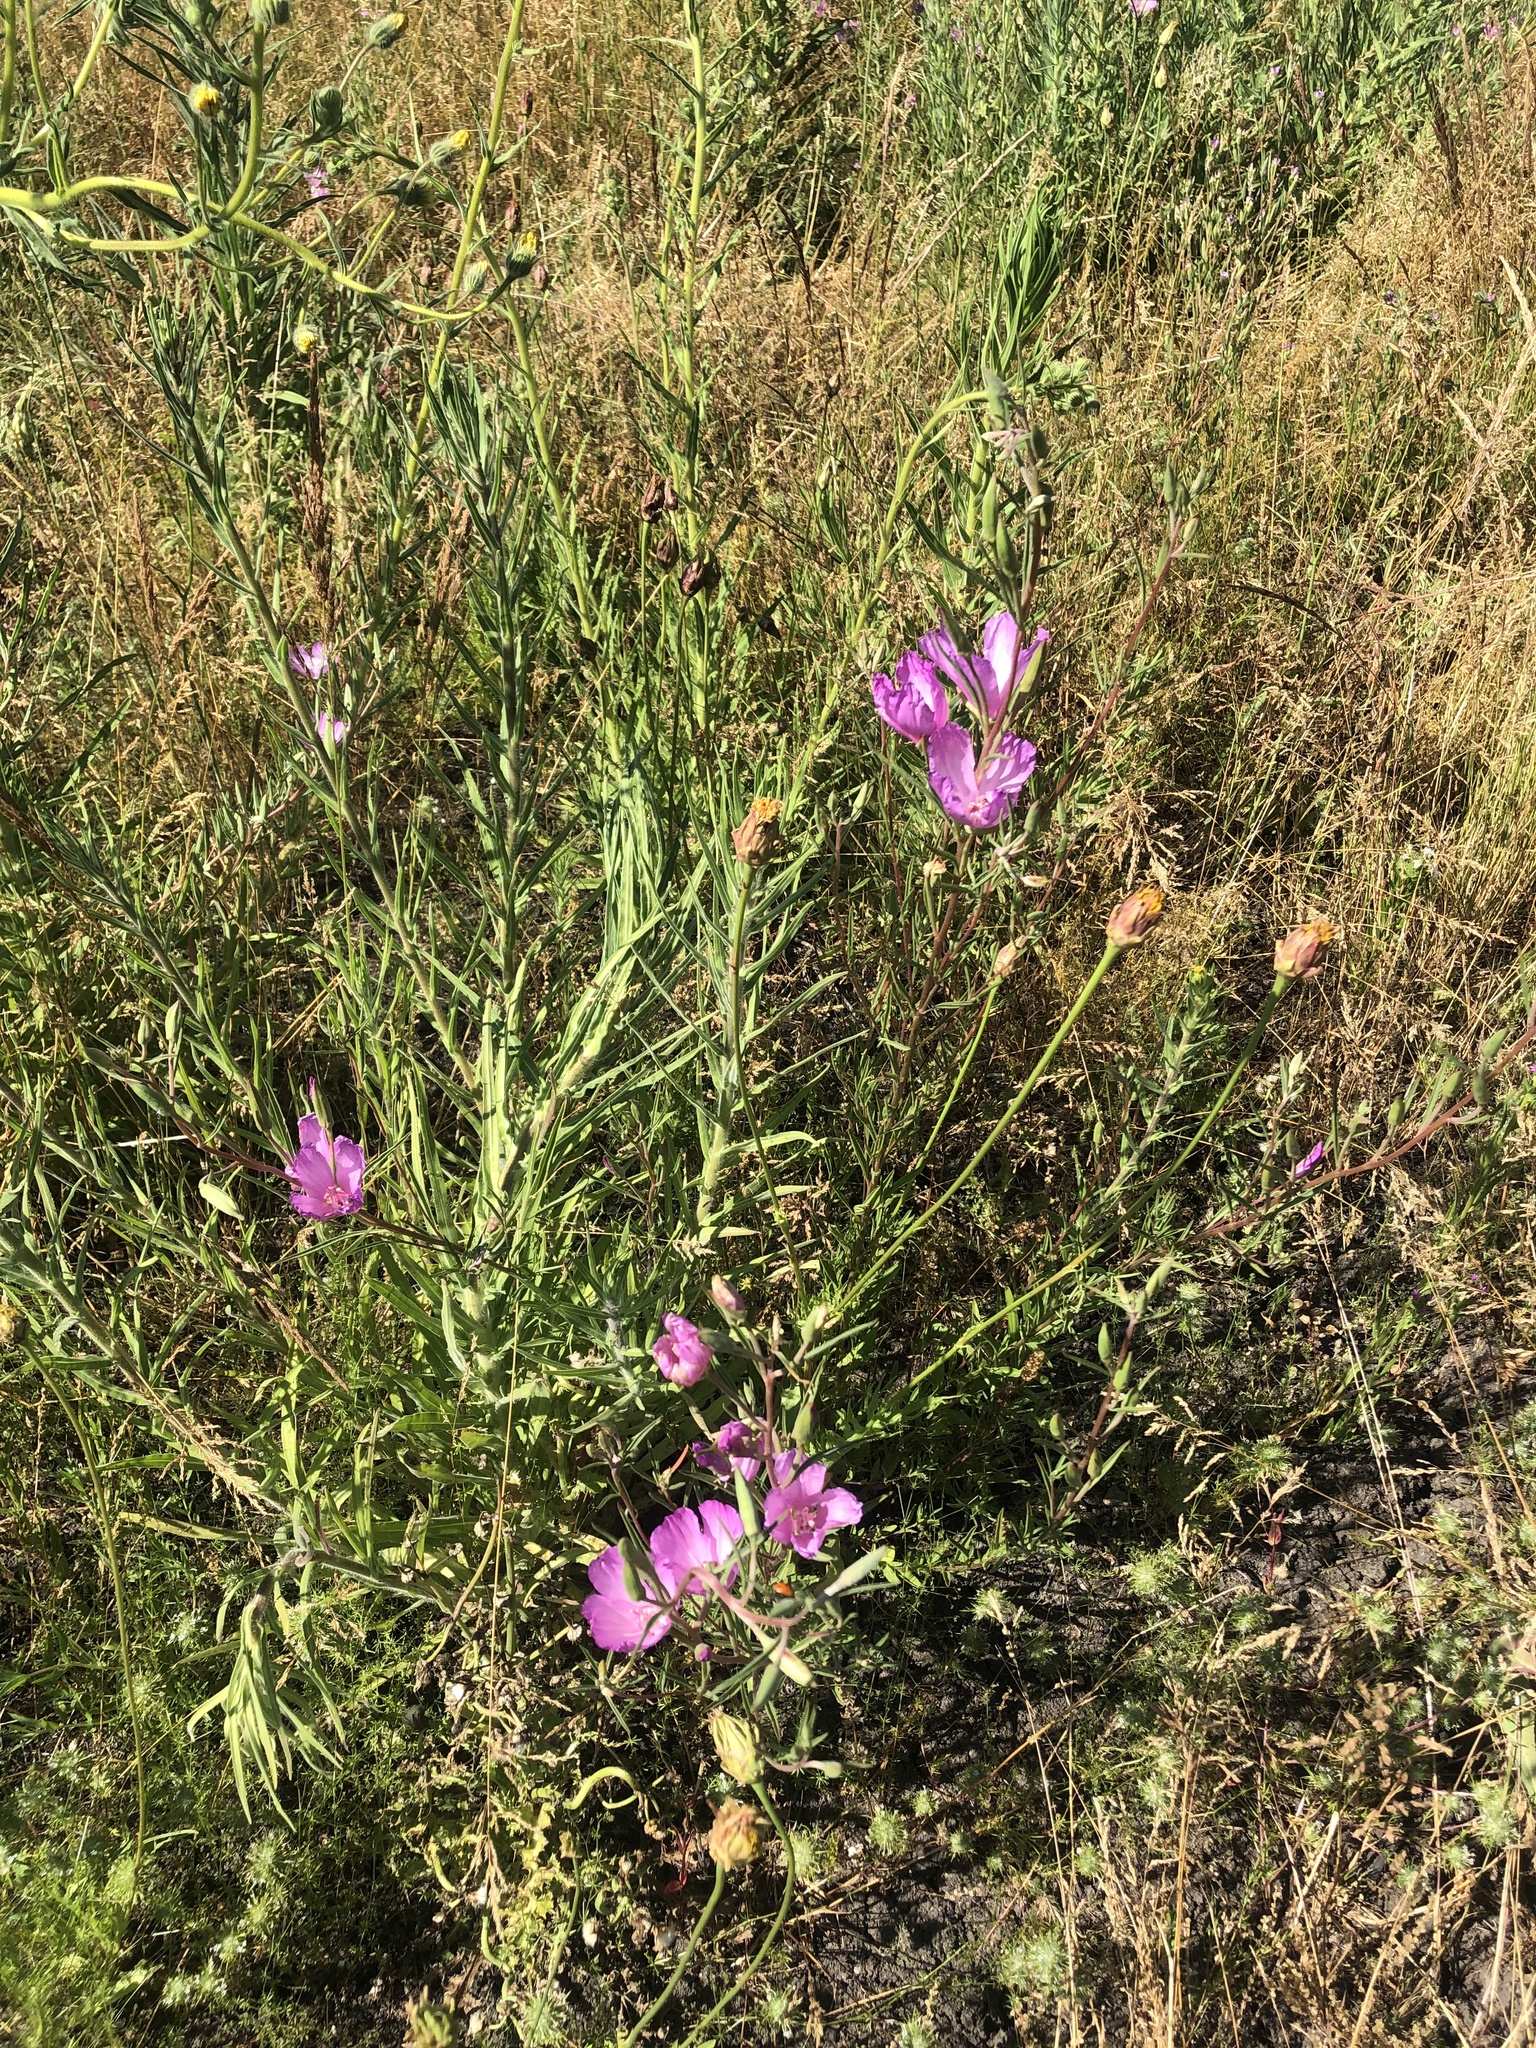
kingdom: Plantae
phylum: Tracheophyta
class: Magnoliopsida
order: Myrtales
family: Onagraceae
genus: Clarkia
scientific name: Clarkia amoena
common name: Godetia
